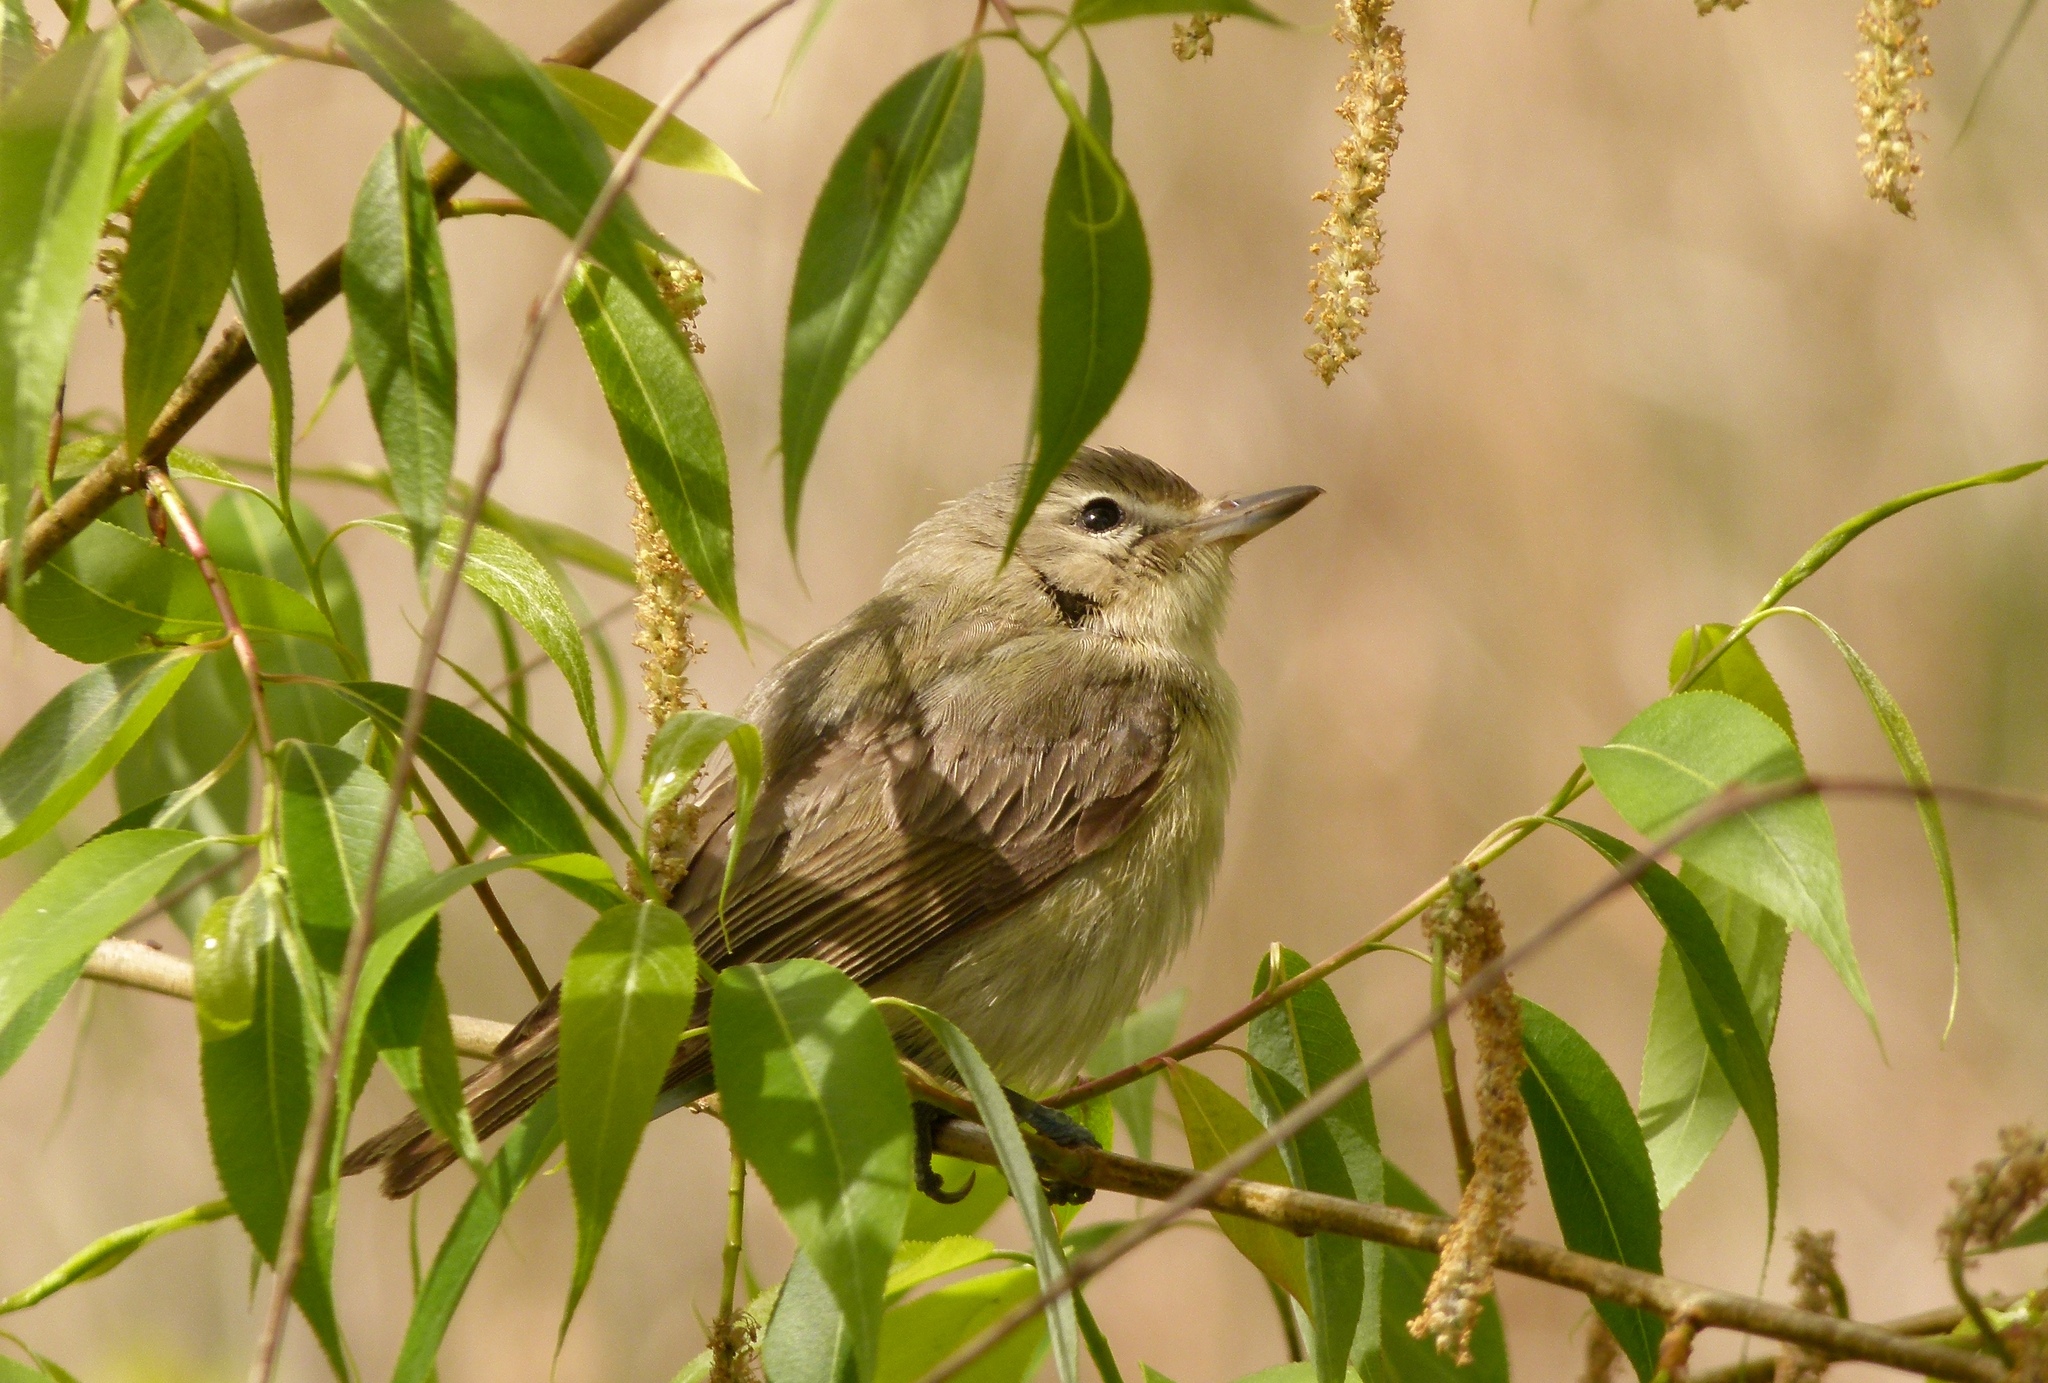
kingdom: Animalia
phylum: Chordata
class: Aves
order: Passeriformes
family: Vireonidae
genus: Vireo
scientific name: Vireo gilvus
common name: Warbling vireo
